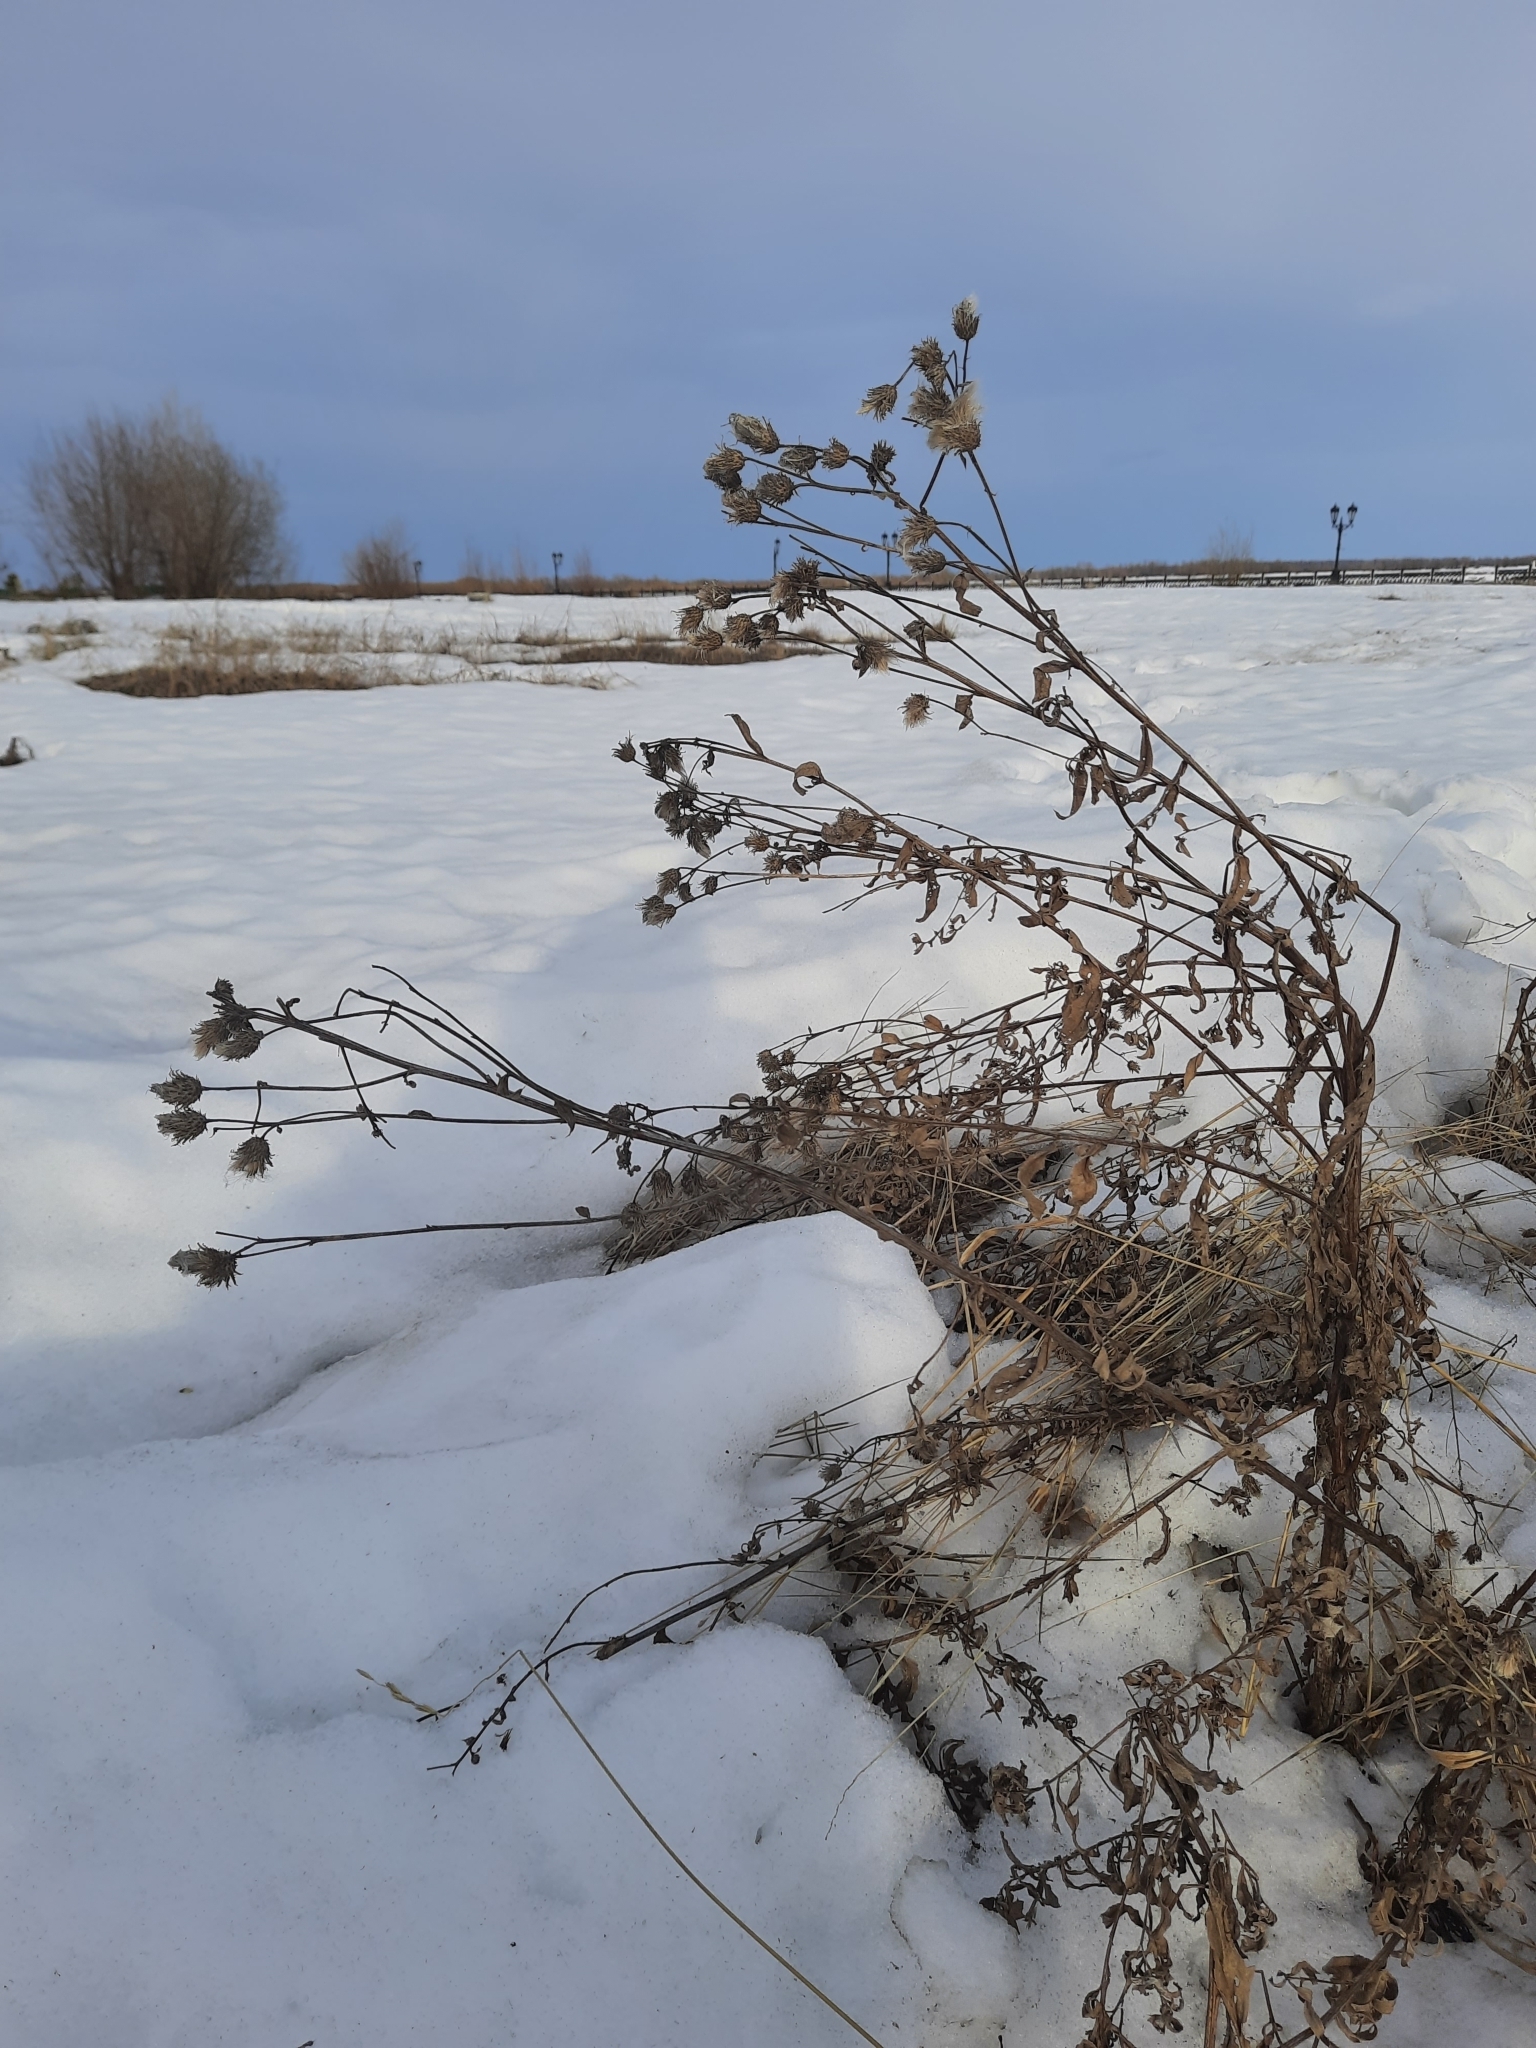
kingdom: Plantae
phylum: Tracheophyta
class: Magnoliopsida
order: Asterales
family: Asteraceae
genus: Cirsium
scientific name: Cirsium arvense
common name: Creeping thistle
